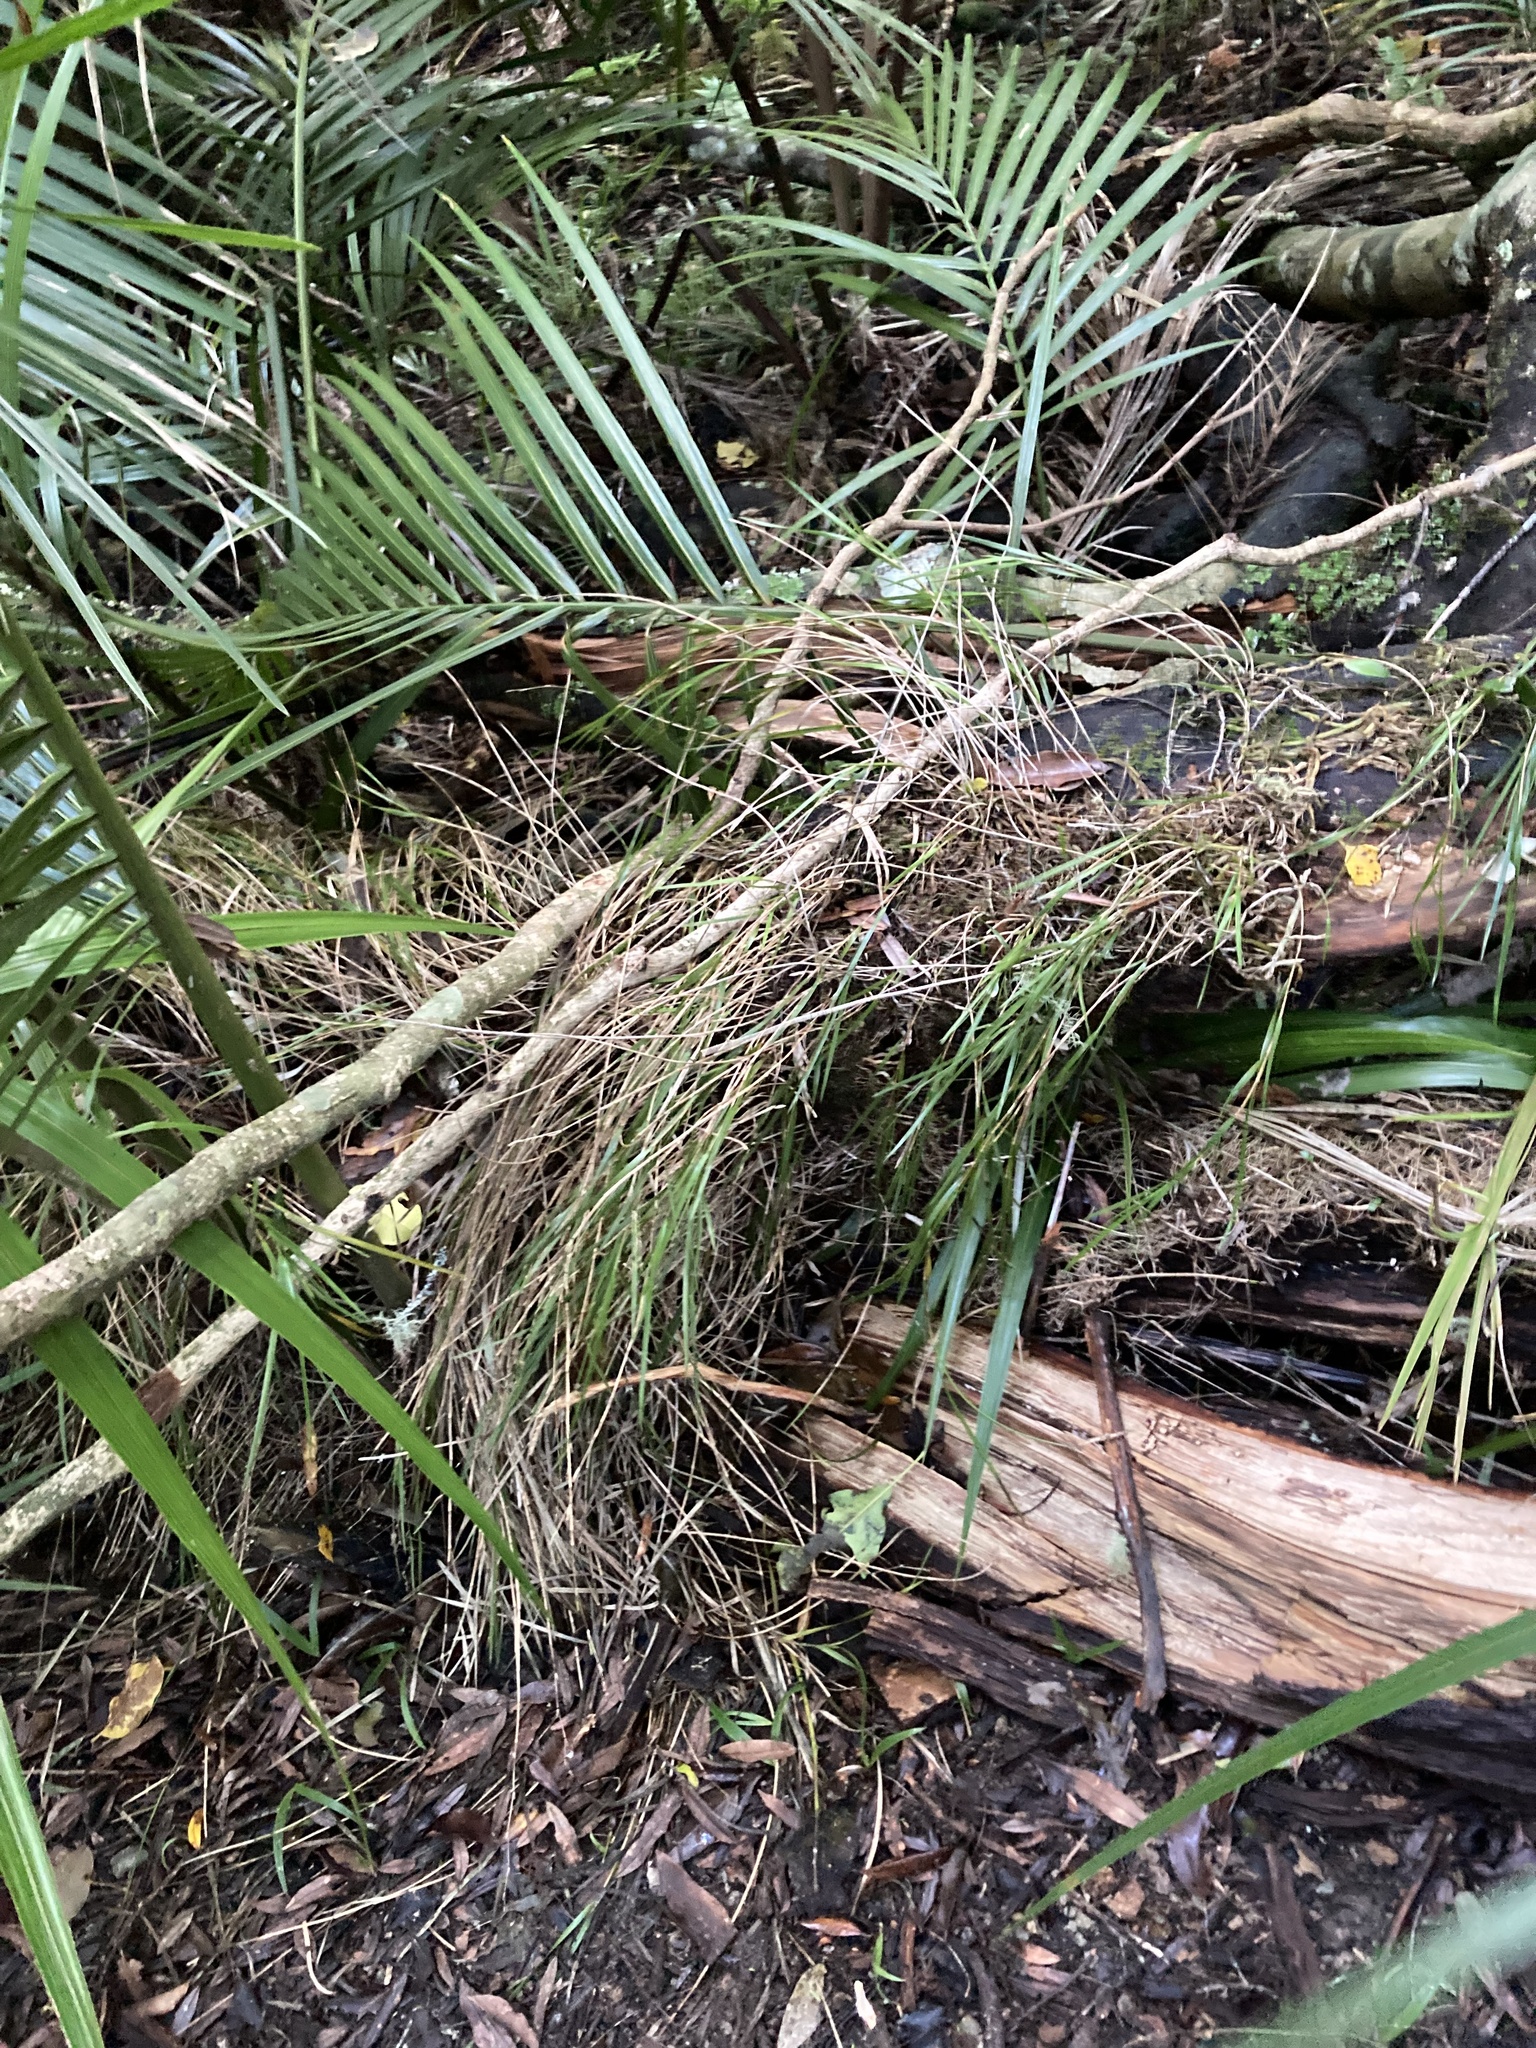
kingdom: Plantae
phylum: Tracheophyta
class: Liliopsida
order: Asparagales
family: Orchidaceae
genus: Earina
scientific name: Earina mucronata
